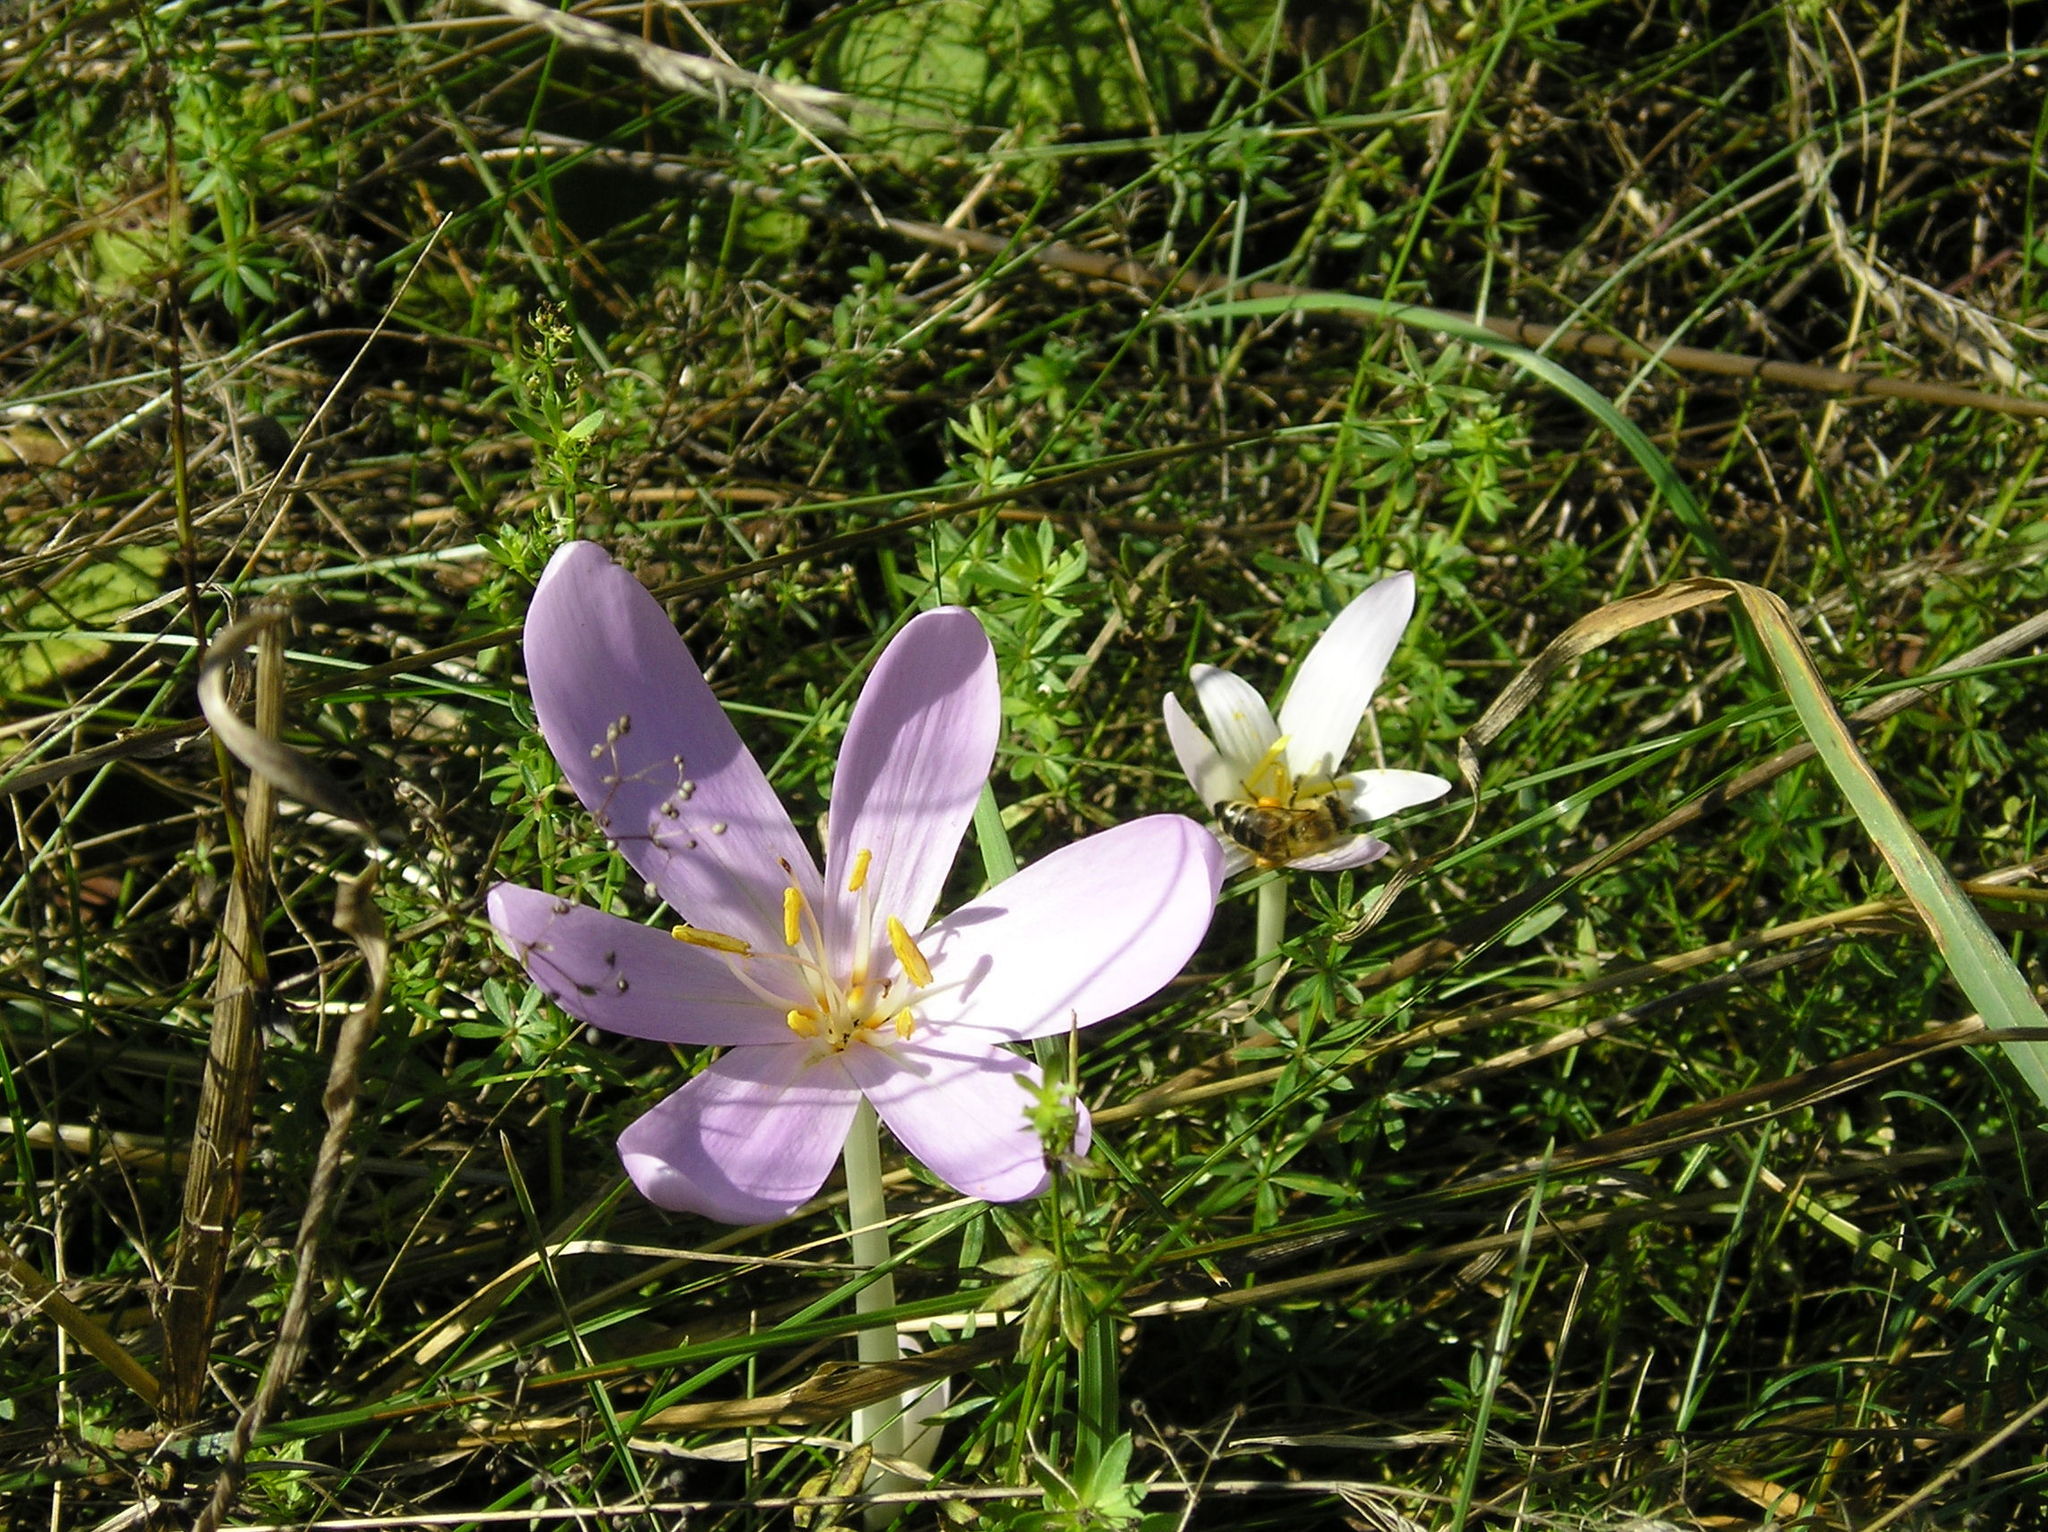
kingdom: Plantae
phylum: Tracheophyta
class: Liliopsida
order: Liliales
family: Colchicaceae
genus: Colchicum
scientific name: Colchicum autumnale
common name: Autumn crocus
